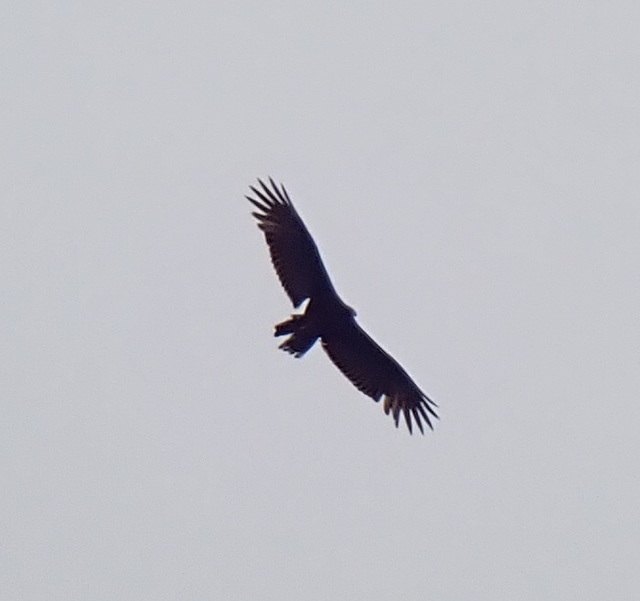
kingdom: Animalia
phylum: Chordata
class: Aves
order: Accipitriformes
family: Cathartidae
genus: Cathartes
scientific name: Cathartes aura
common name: Turkey vulture
